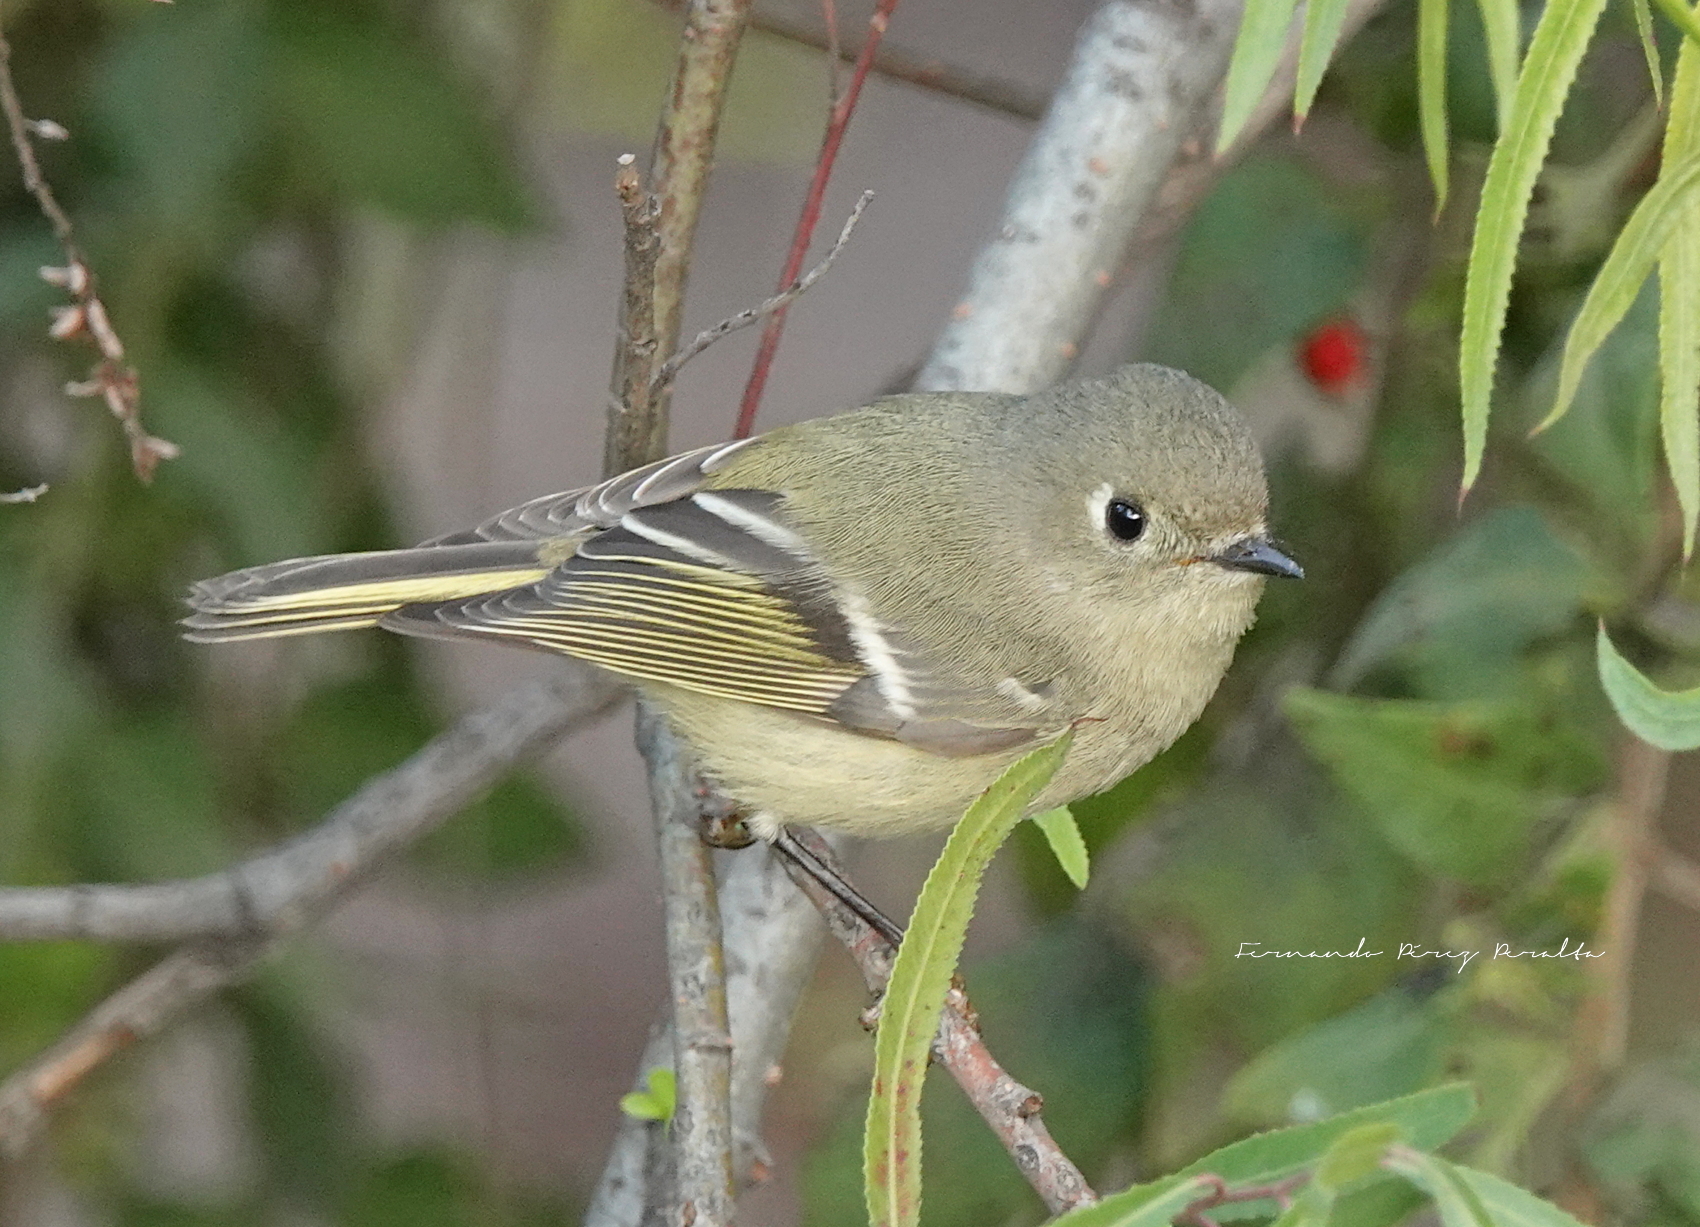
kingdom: Animalia
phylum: Chordata
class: Aves
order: Passeriformes
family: Regulidae
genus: Regulus
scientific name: Regulus calendula
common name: Ruby-crowned kinglet
